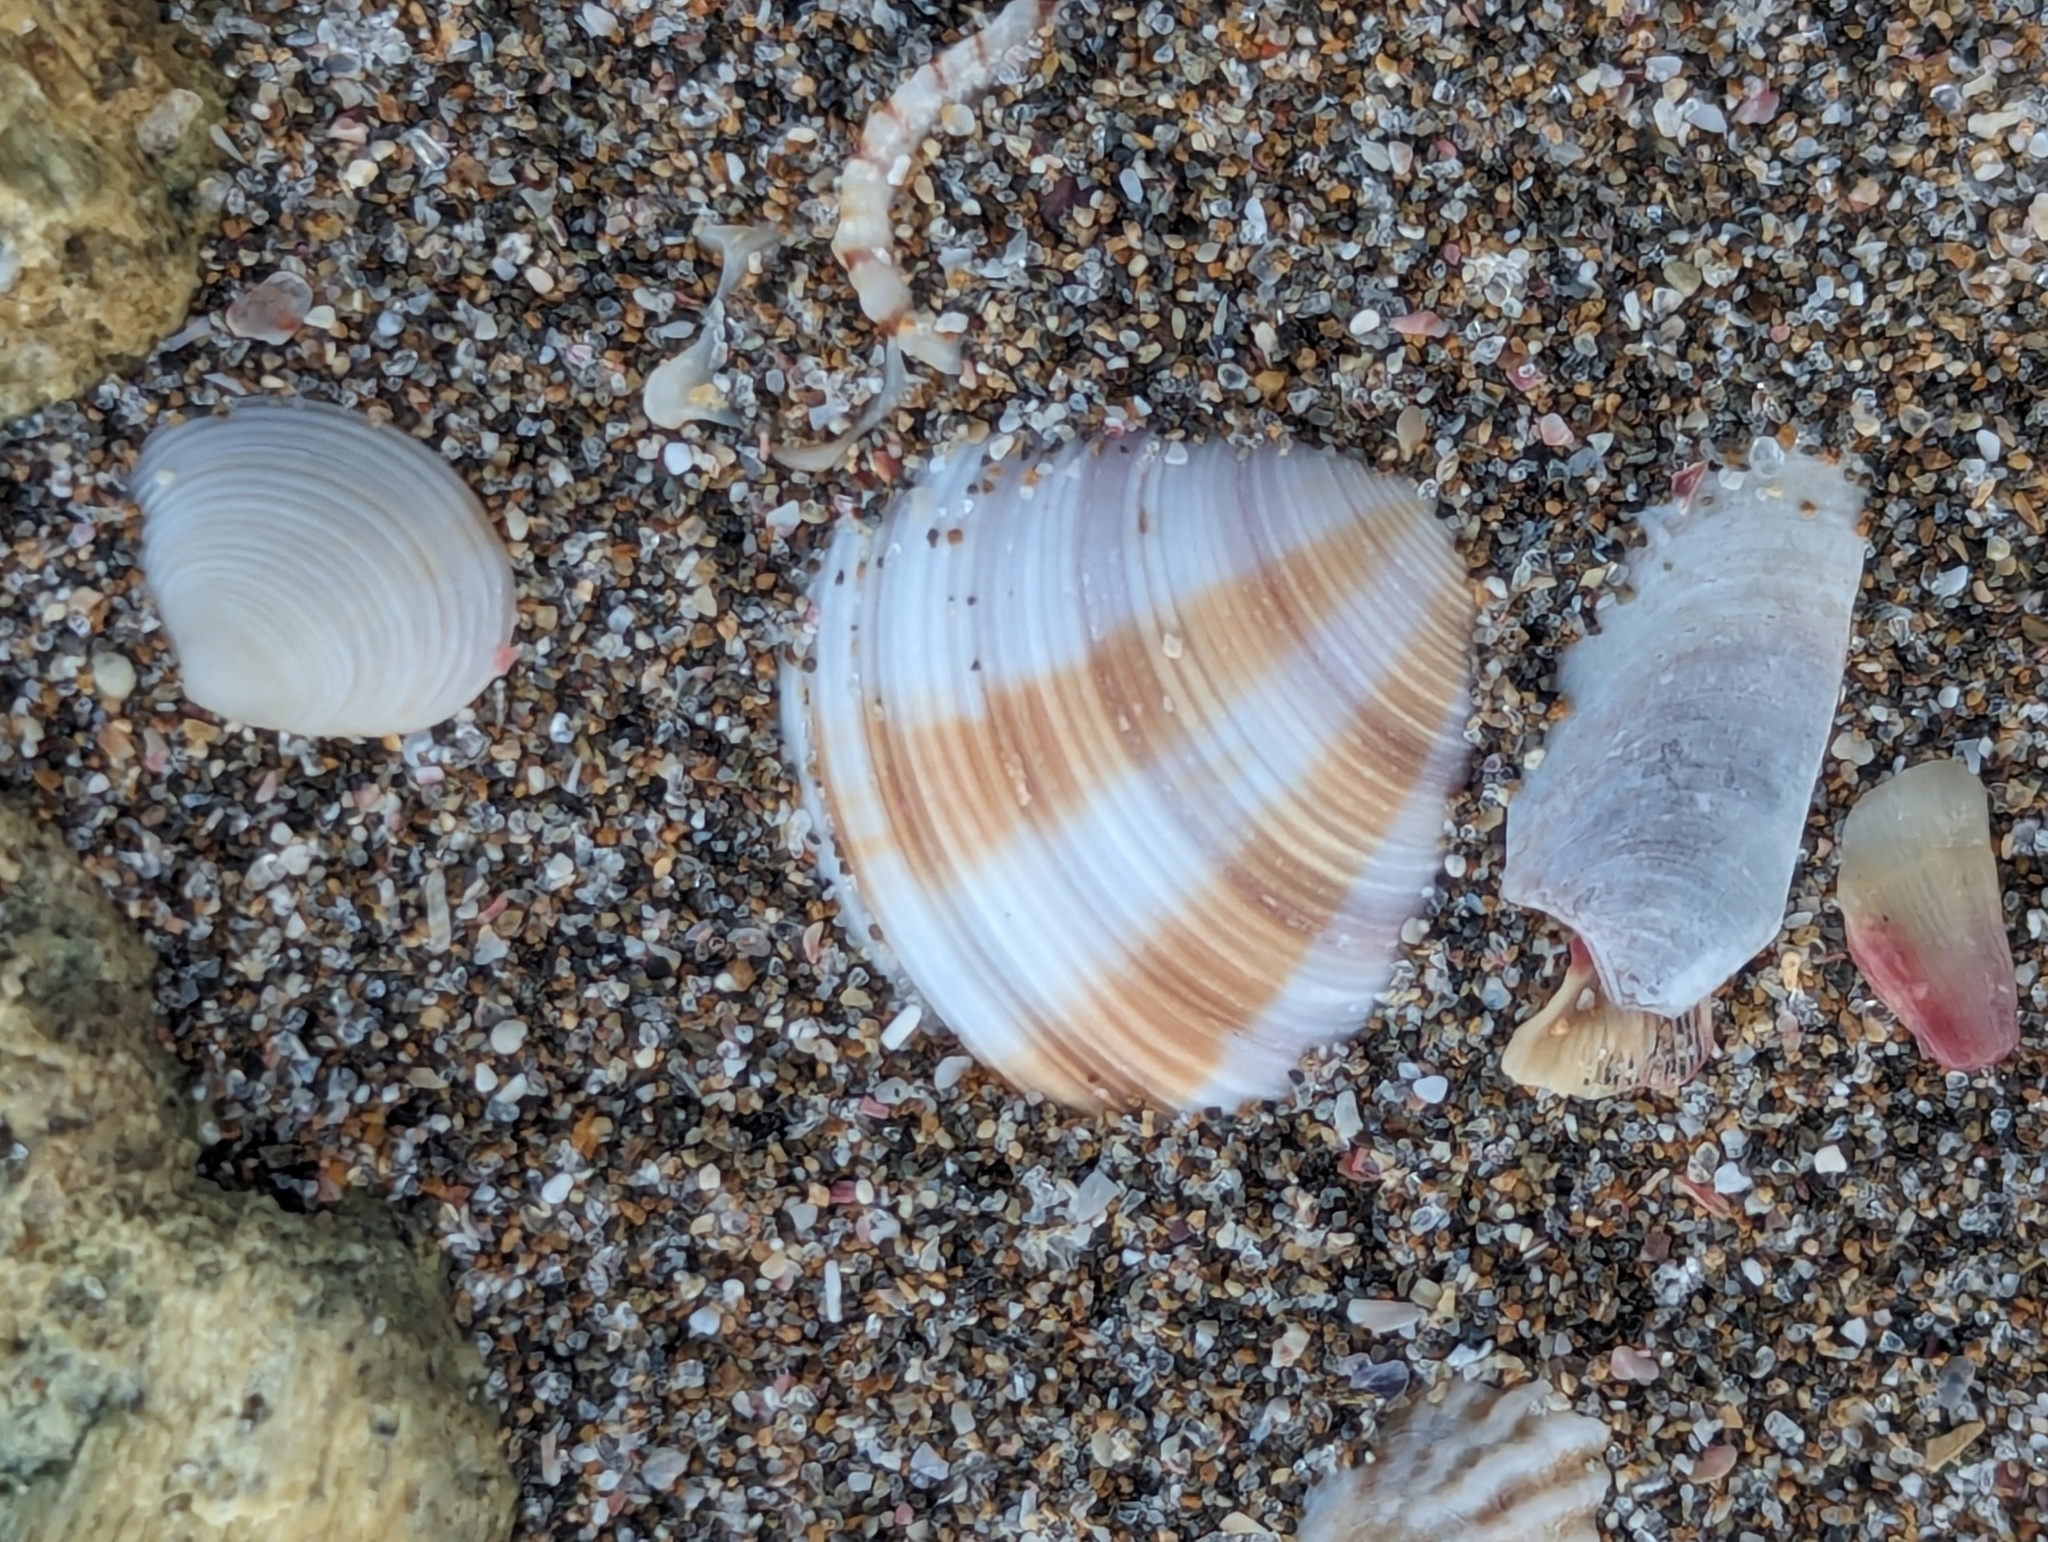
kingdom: Animalia
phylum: Mollusca
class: Bivalvia
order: Venerida
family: Veneridae
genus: Tawera
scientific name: Tawera spissa
